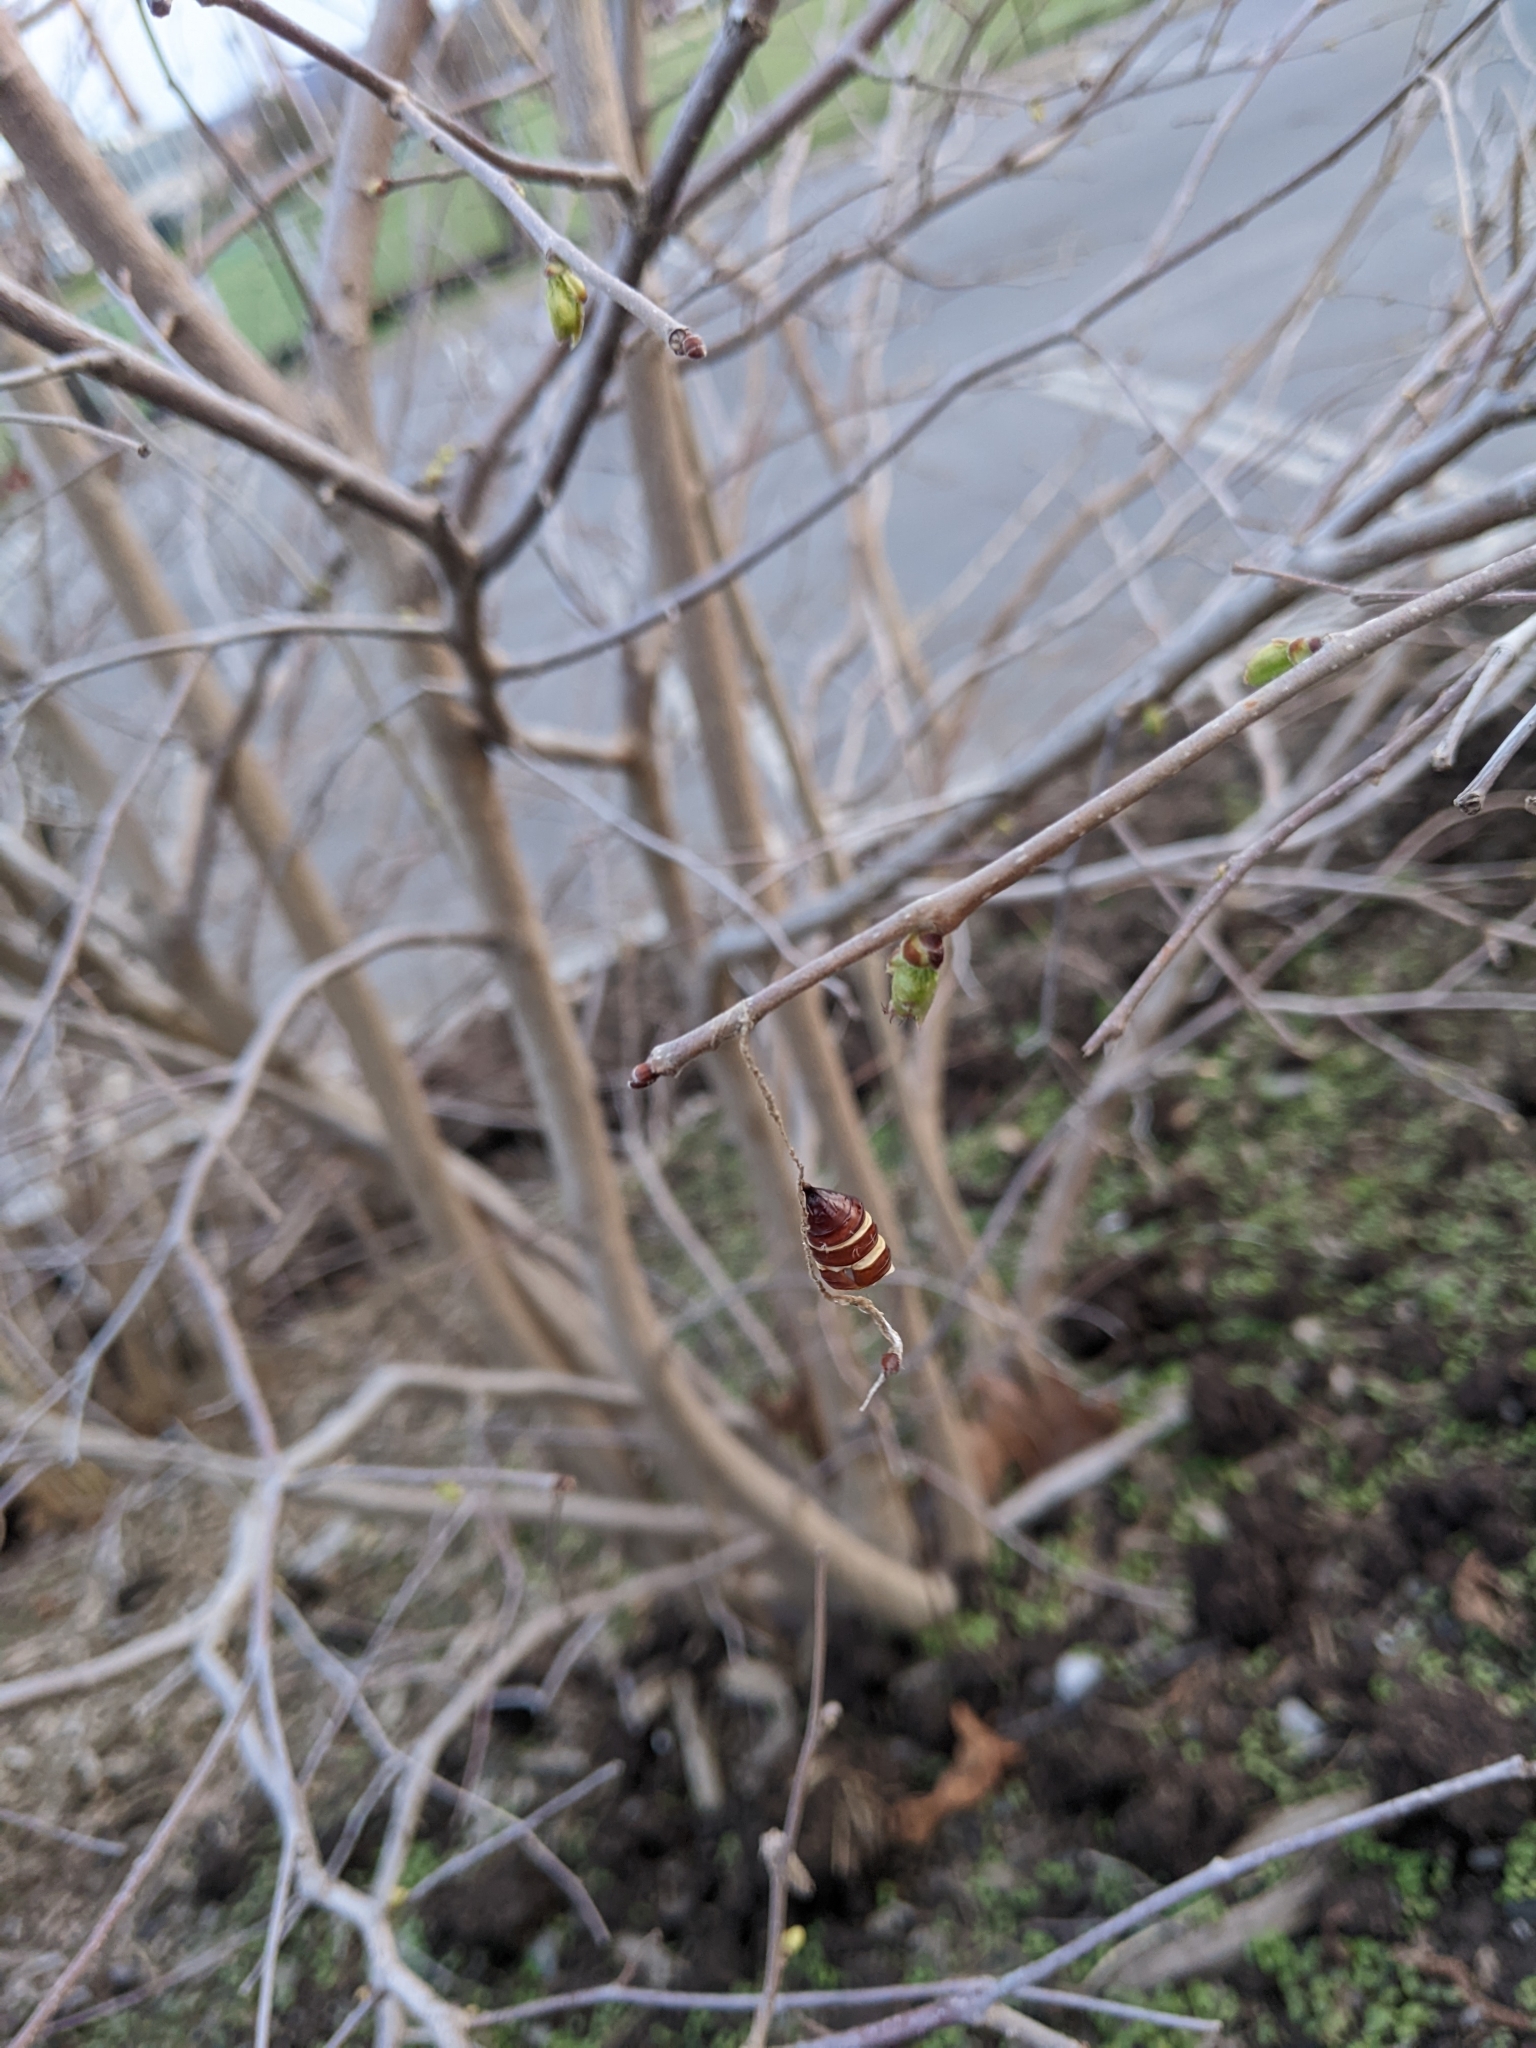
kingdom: Animalia
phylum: Arthropoda
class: Insecta
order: Lepidoptera
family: Erebidae
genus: Lymantria
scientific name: Lymantria dispar
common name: Gypsy moth
